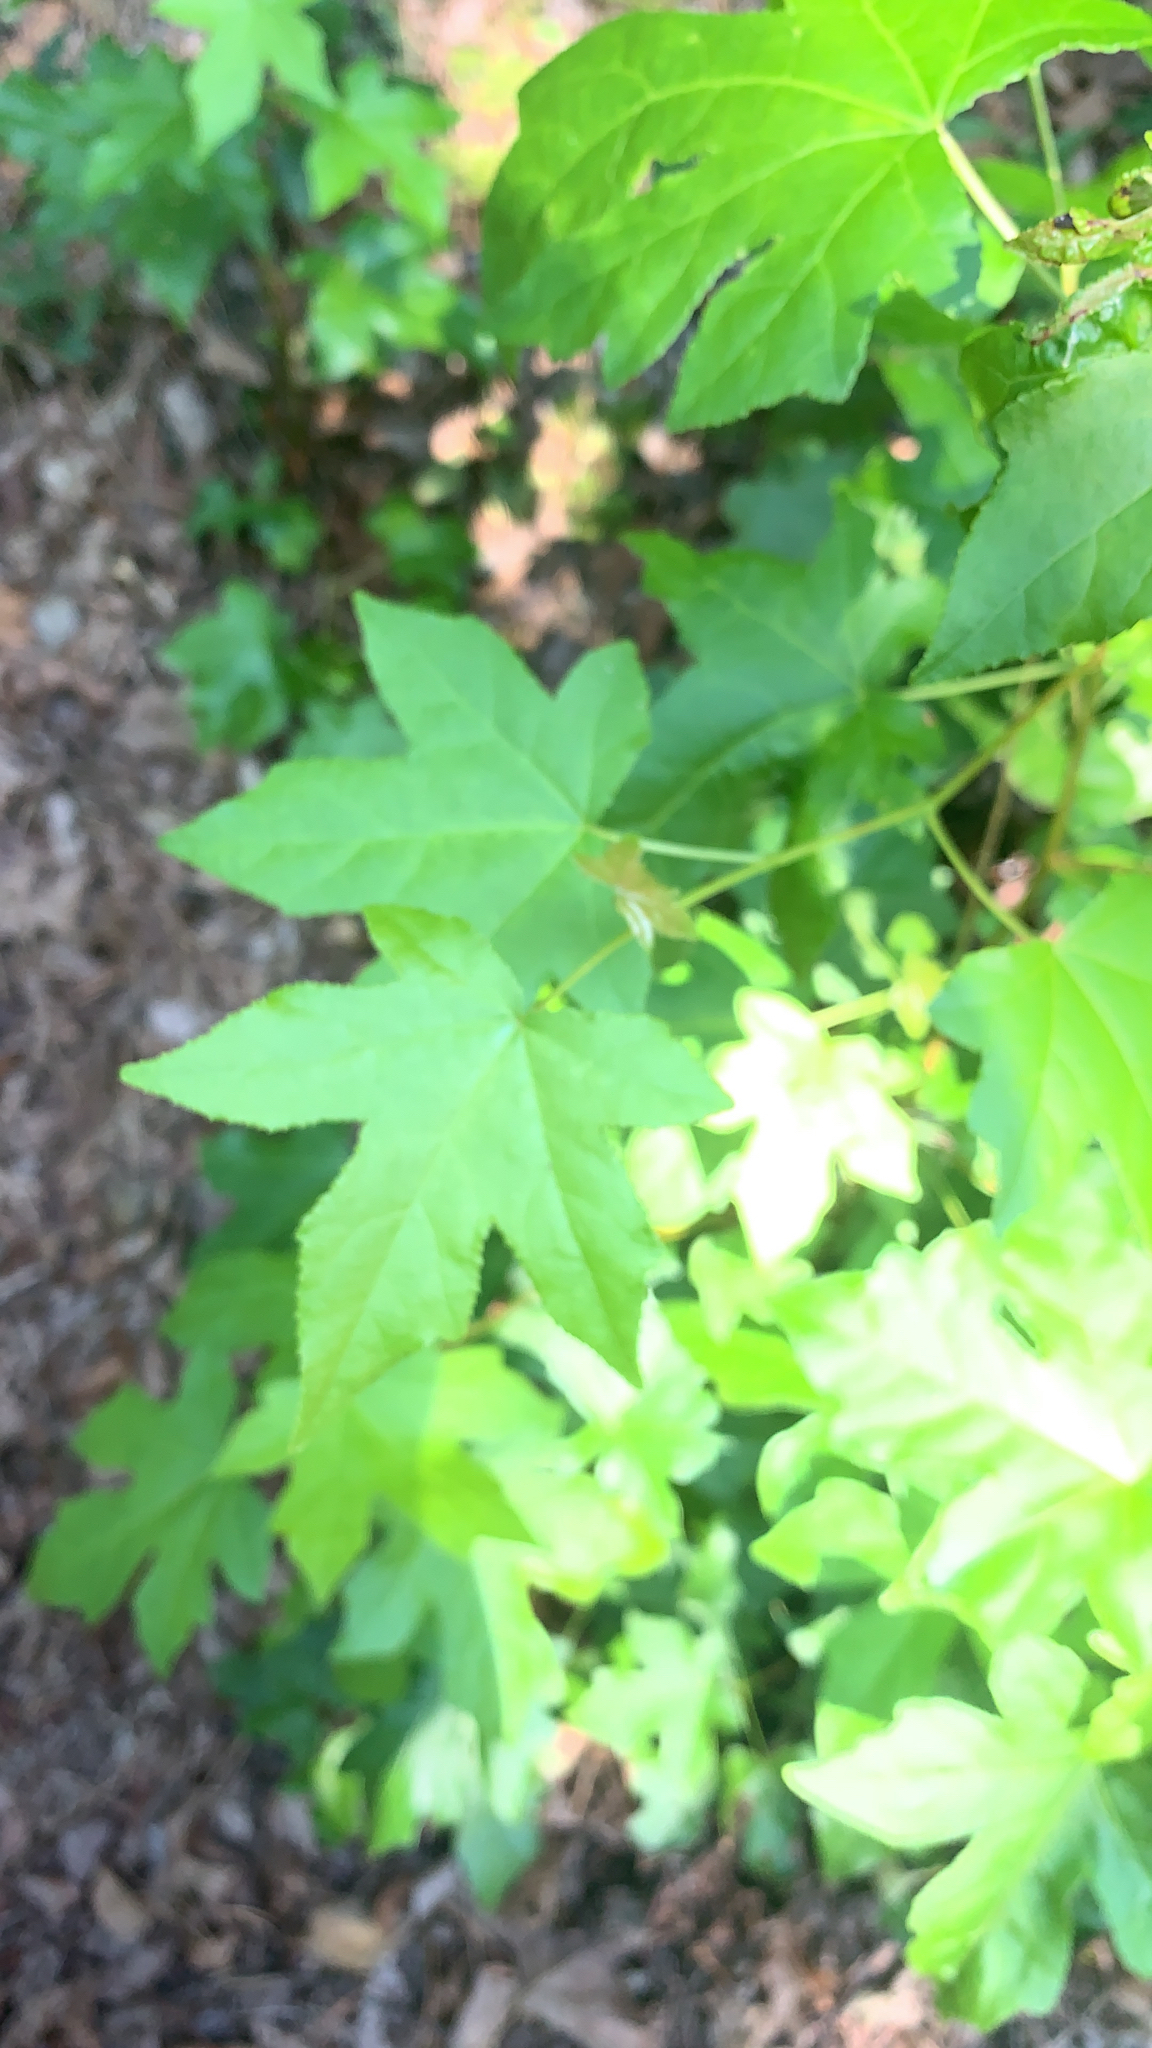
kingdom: Plantae
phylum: Tracheophyta
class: Magnoliopsida
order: Saxifragales
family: Altingiaceae
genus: Liquidambar
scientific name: Liquidambar styraciflua
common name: Sweet gum
